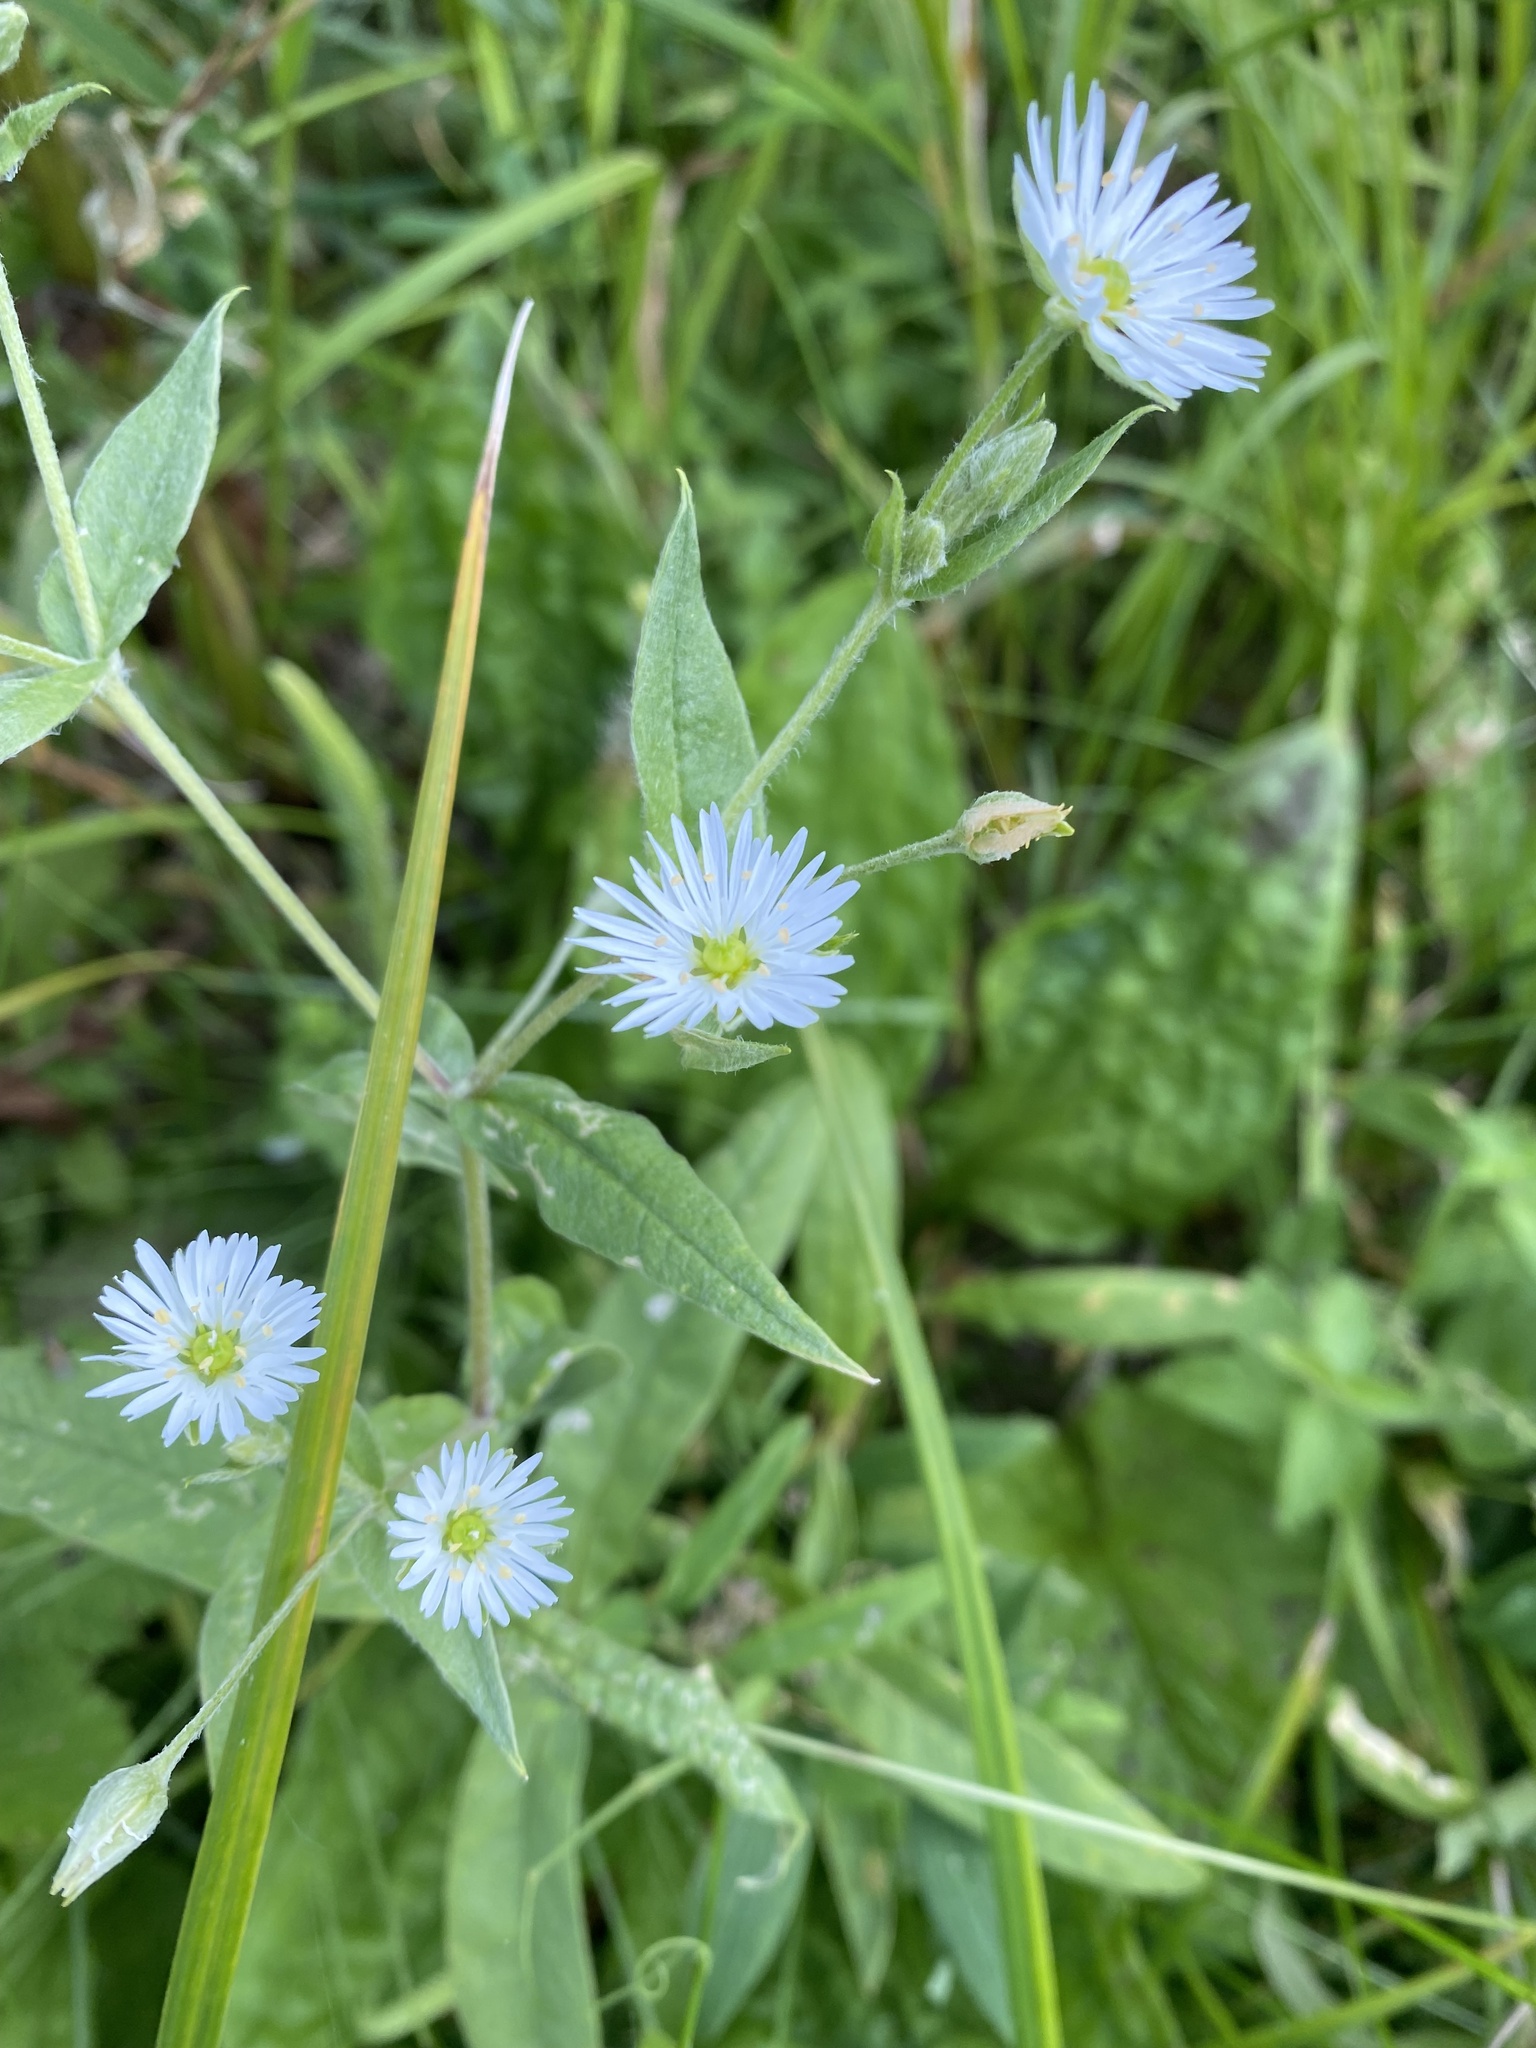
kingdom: Plantae
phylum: Tracheophyta
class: Magnoliopsida
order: Caryophyllales
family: Caryophyllaceae
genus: Stellaria
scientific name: Stellaria radians
